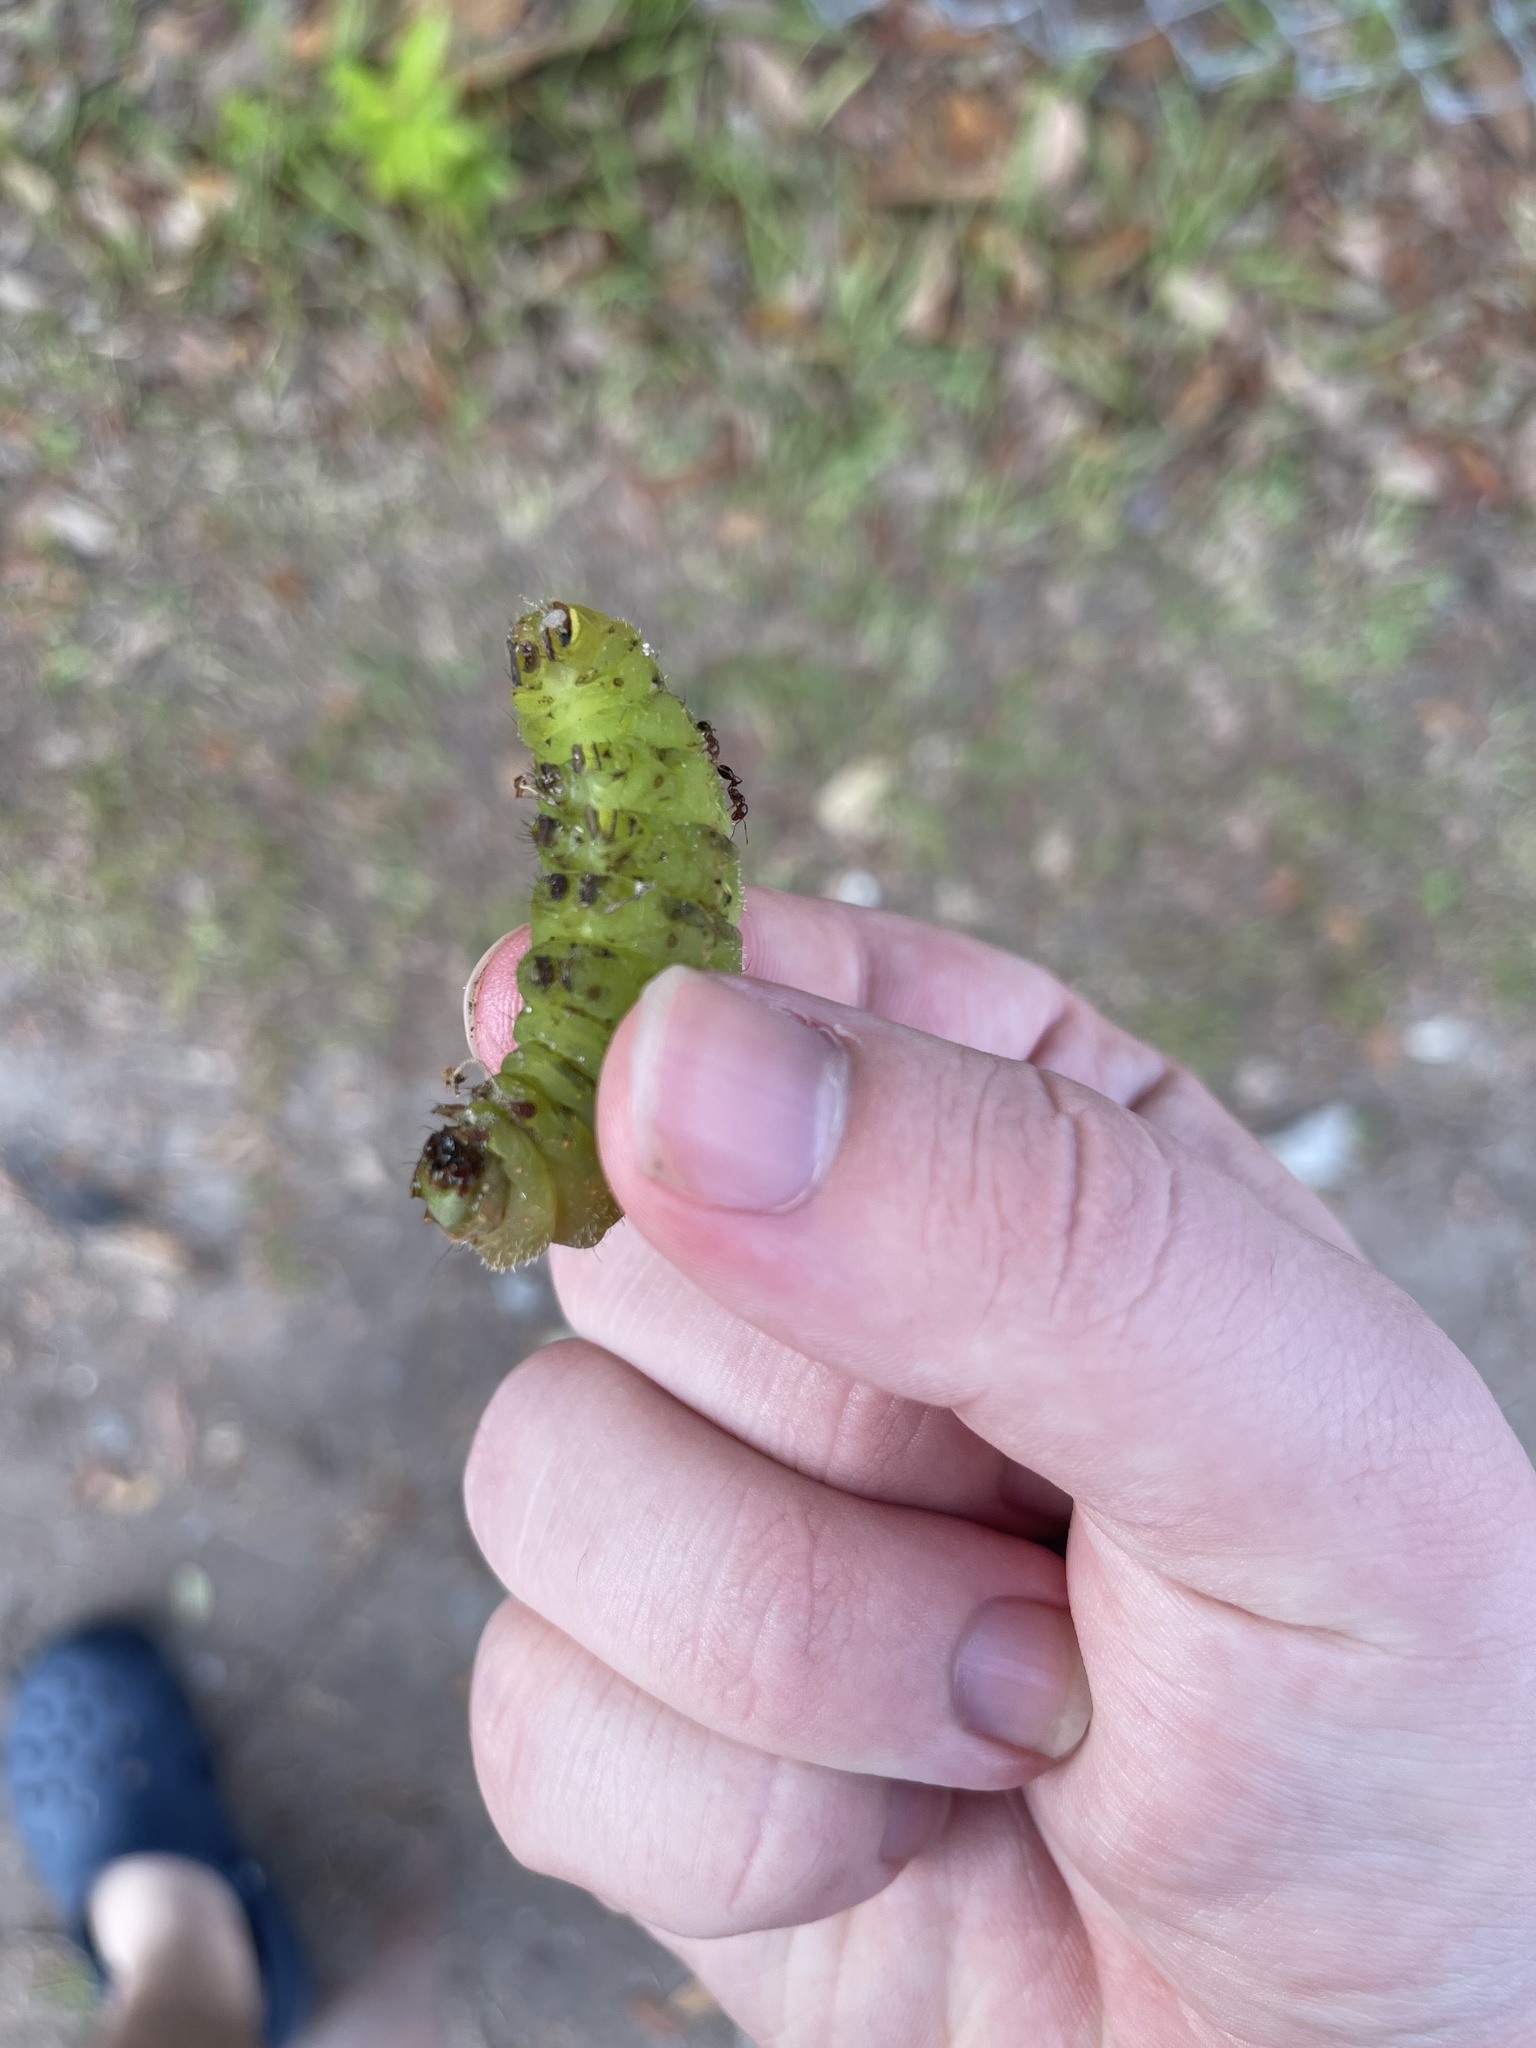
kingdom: Animalia
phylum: Arthropoda
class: Insecta
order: Lepidoptera
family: Saturniidae
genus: Actias
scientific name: Actias luna
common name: Luna moth
